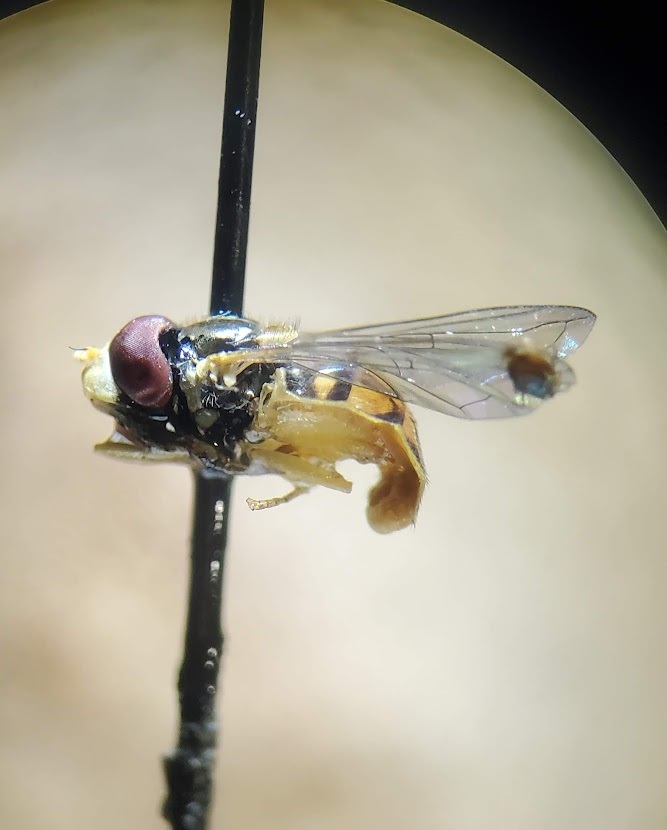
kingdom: Animalia
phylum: Arthropoda
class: Insecta
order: Diptera
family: Syrphidae
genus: Toxomerus
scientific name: Toxomerus marginatus
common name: Syrphid fly
